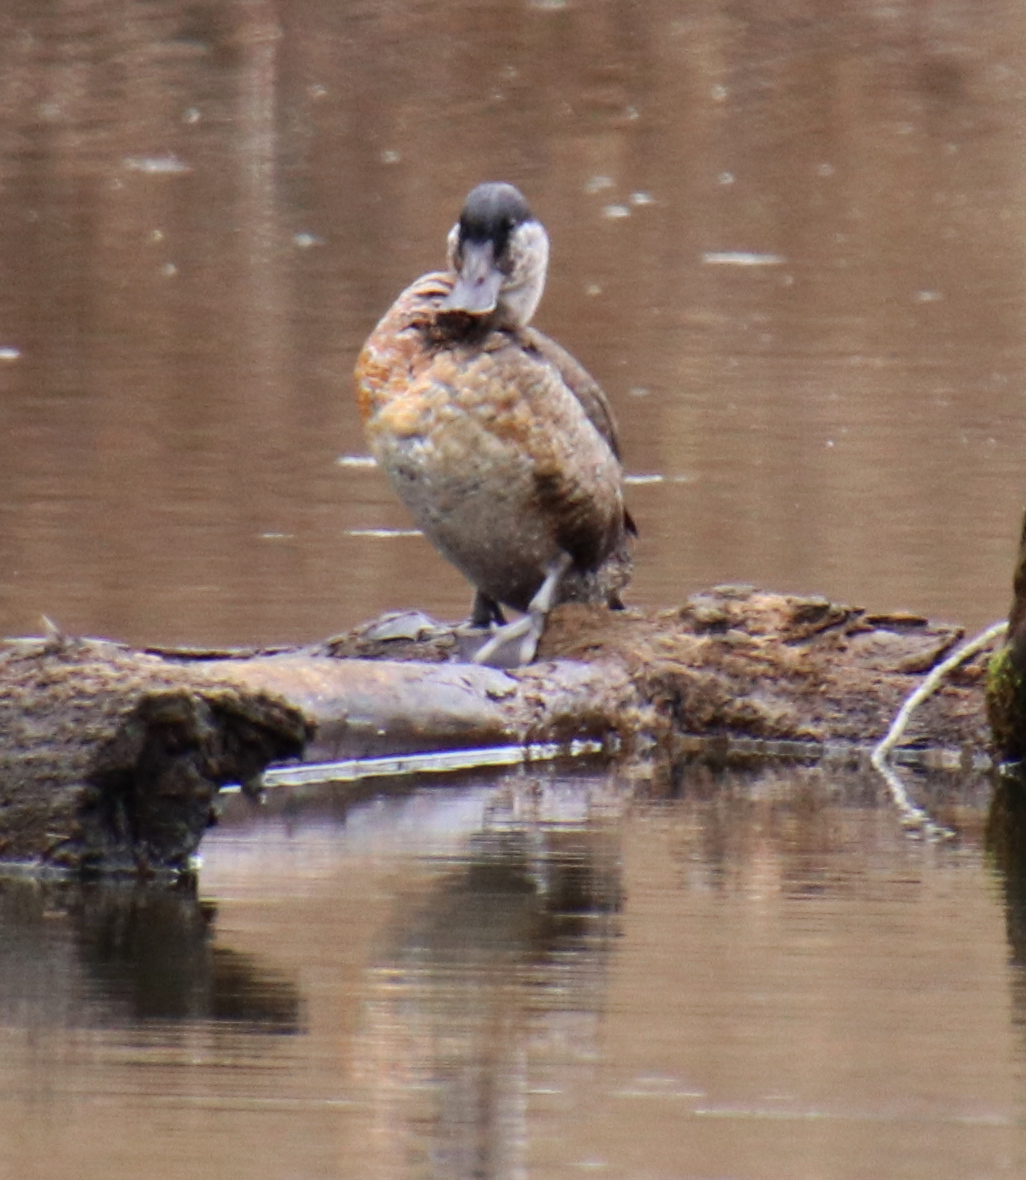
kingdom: Animalia
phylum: Chordata
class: Aves
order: Anseriformes
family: Anatidae
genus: Oxyura
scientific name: Oxyura jamaicensis
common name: Ruddy duck
